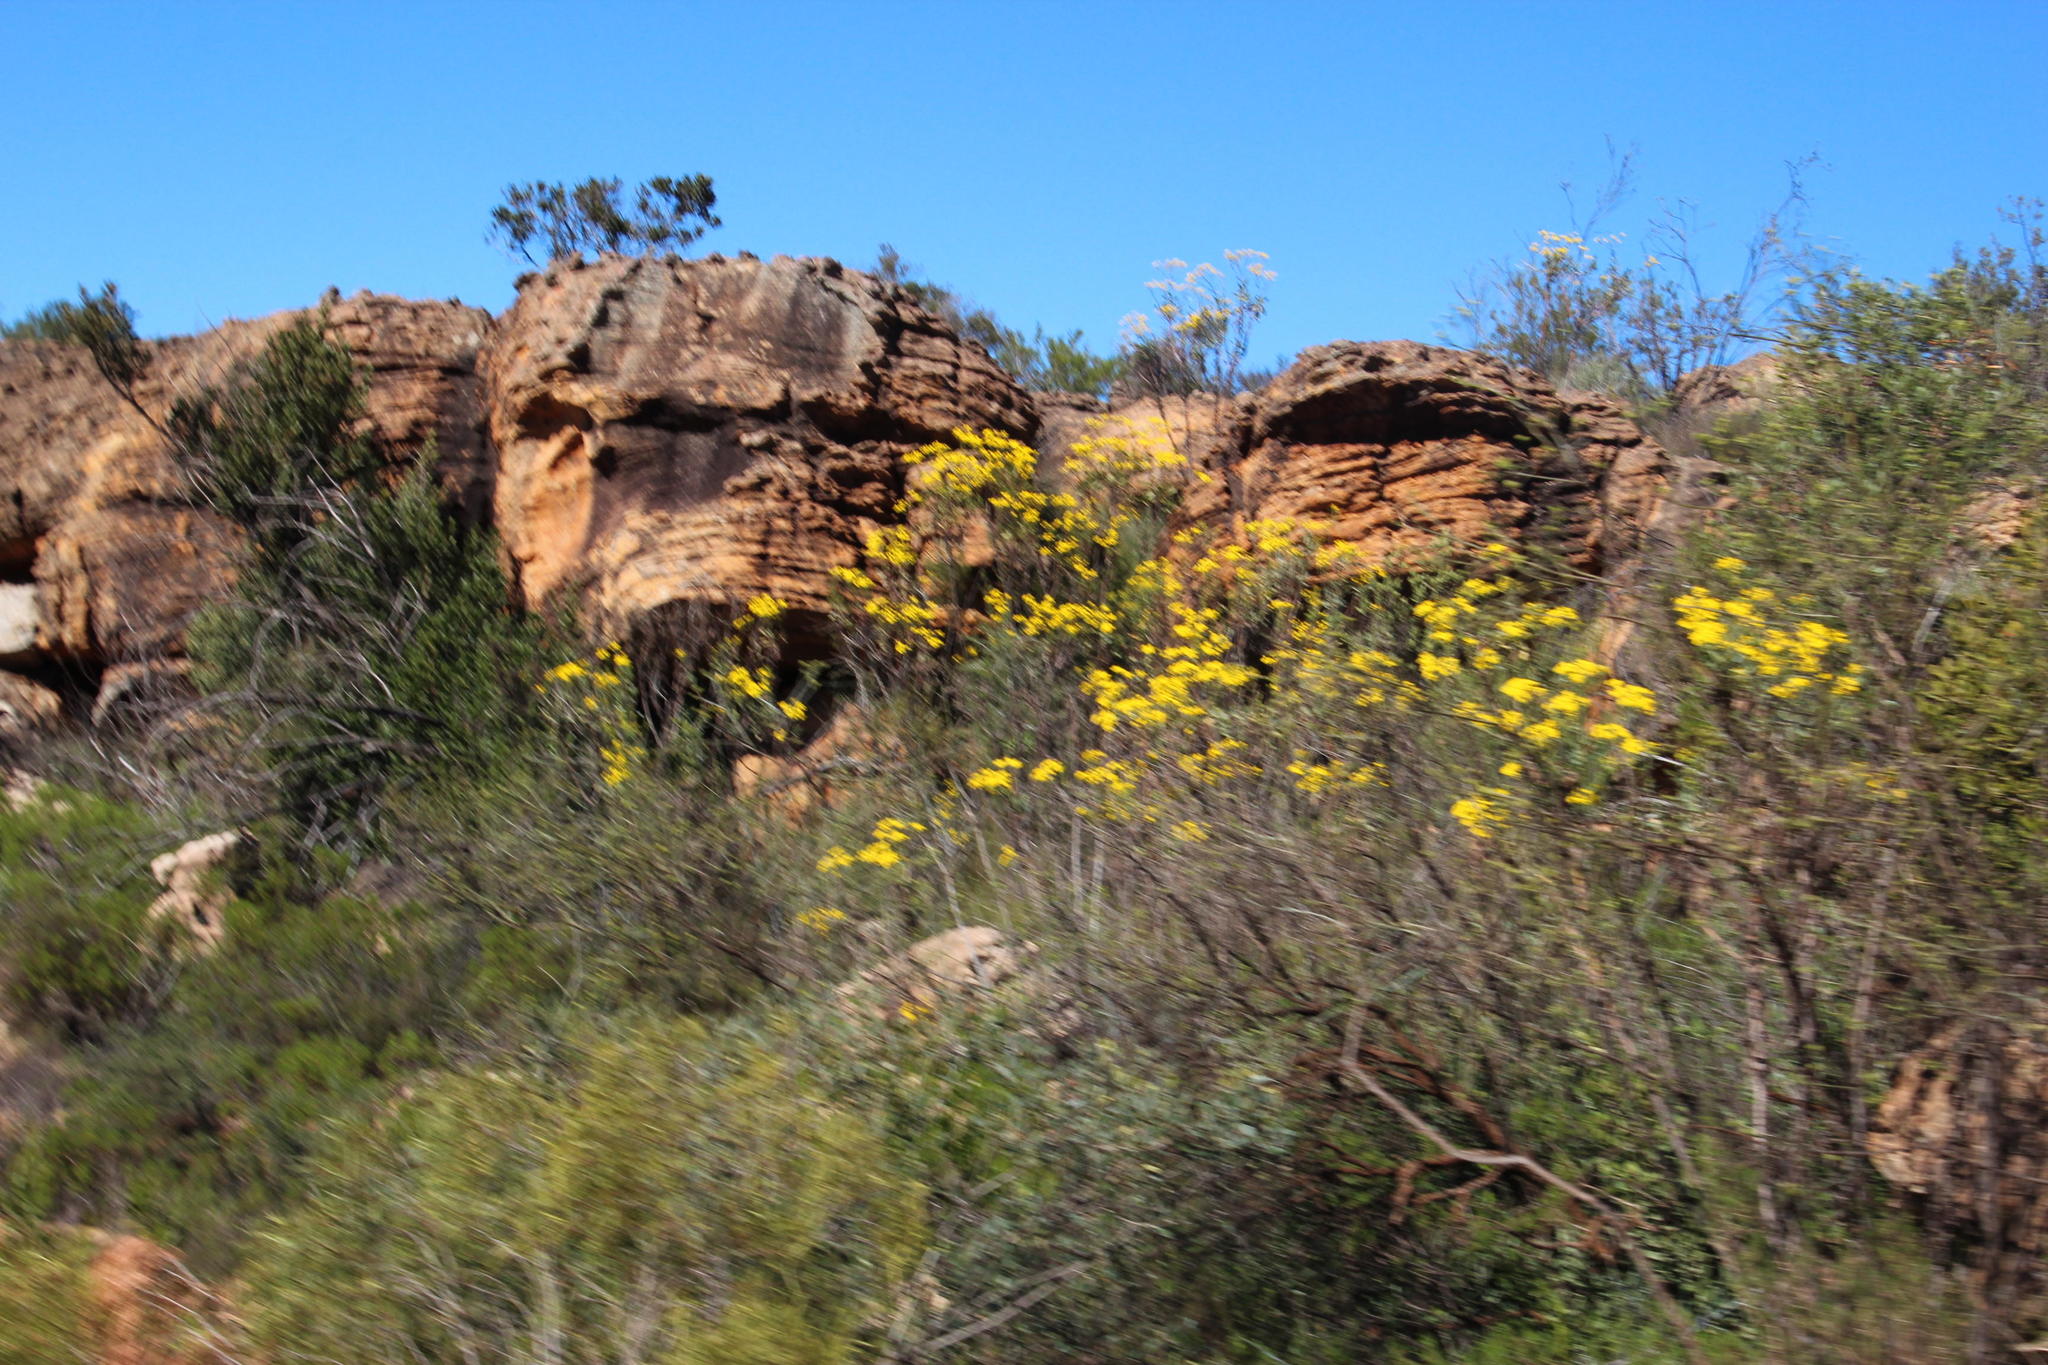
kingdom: Plantae
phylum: Tracheophyta
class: Magnoliopsida
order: Asterales
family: Asteraceae
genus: Othonna
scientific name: Othonna parviflora
